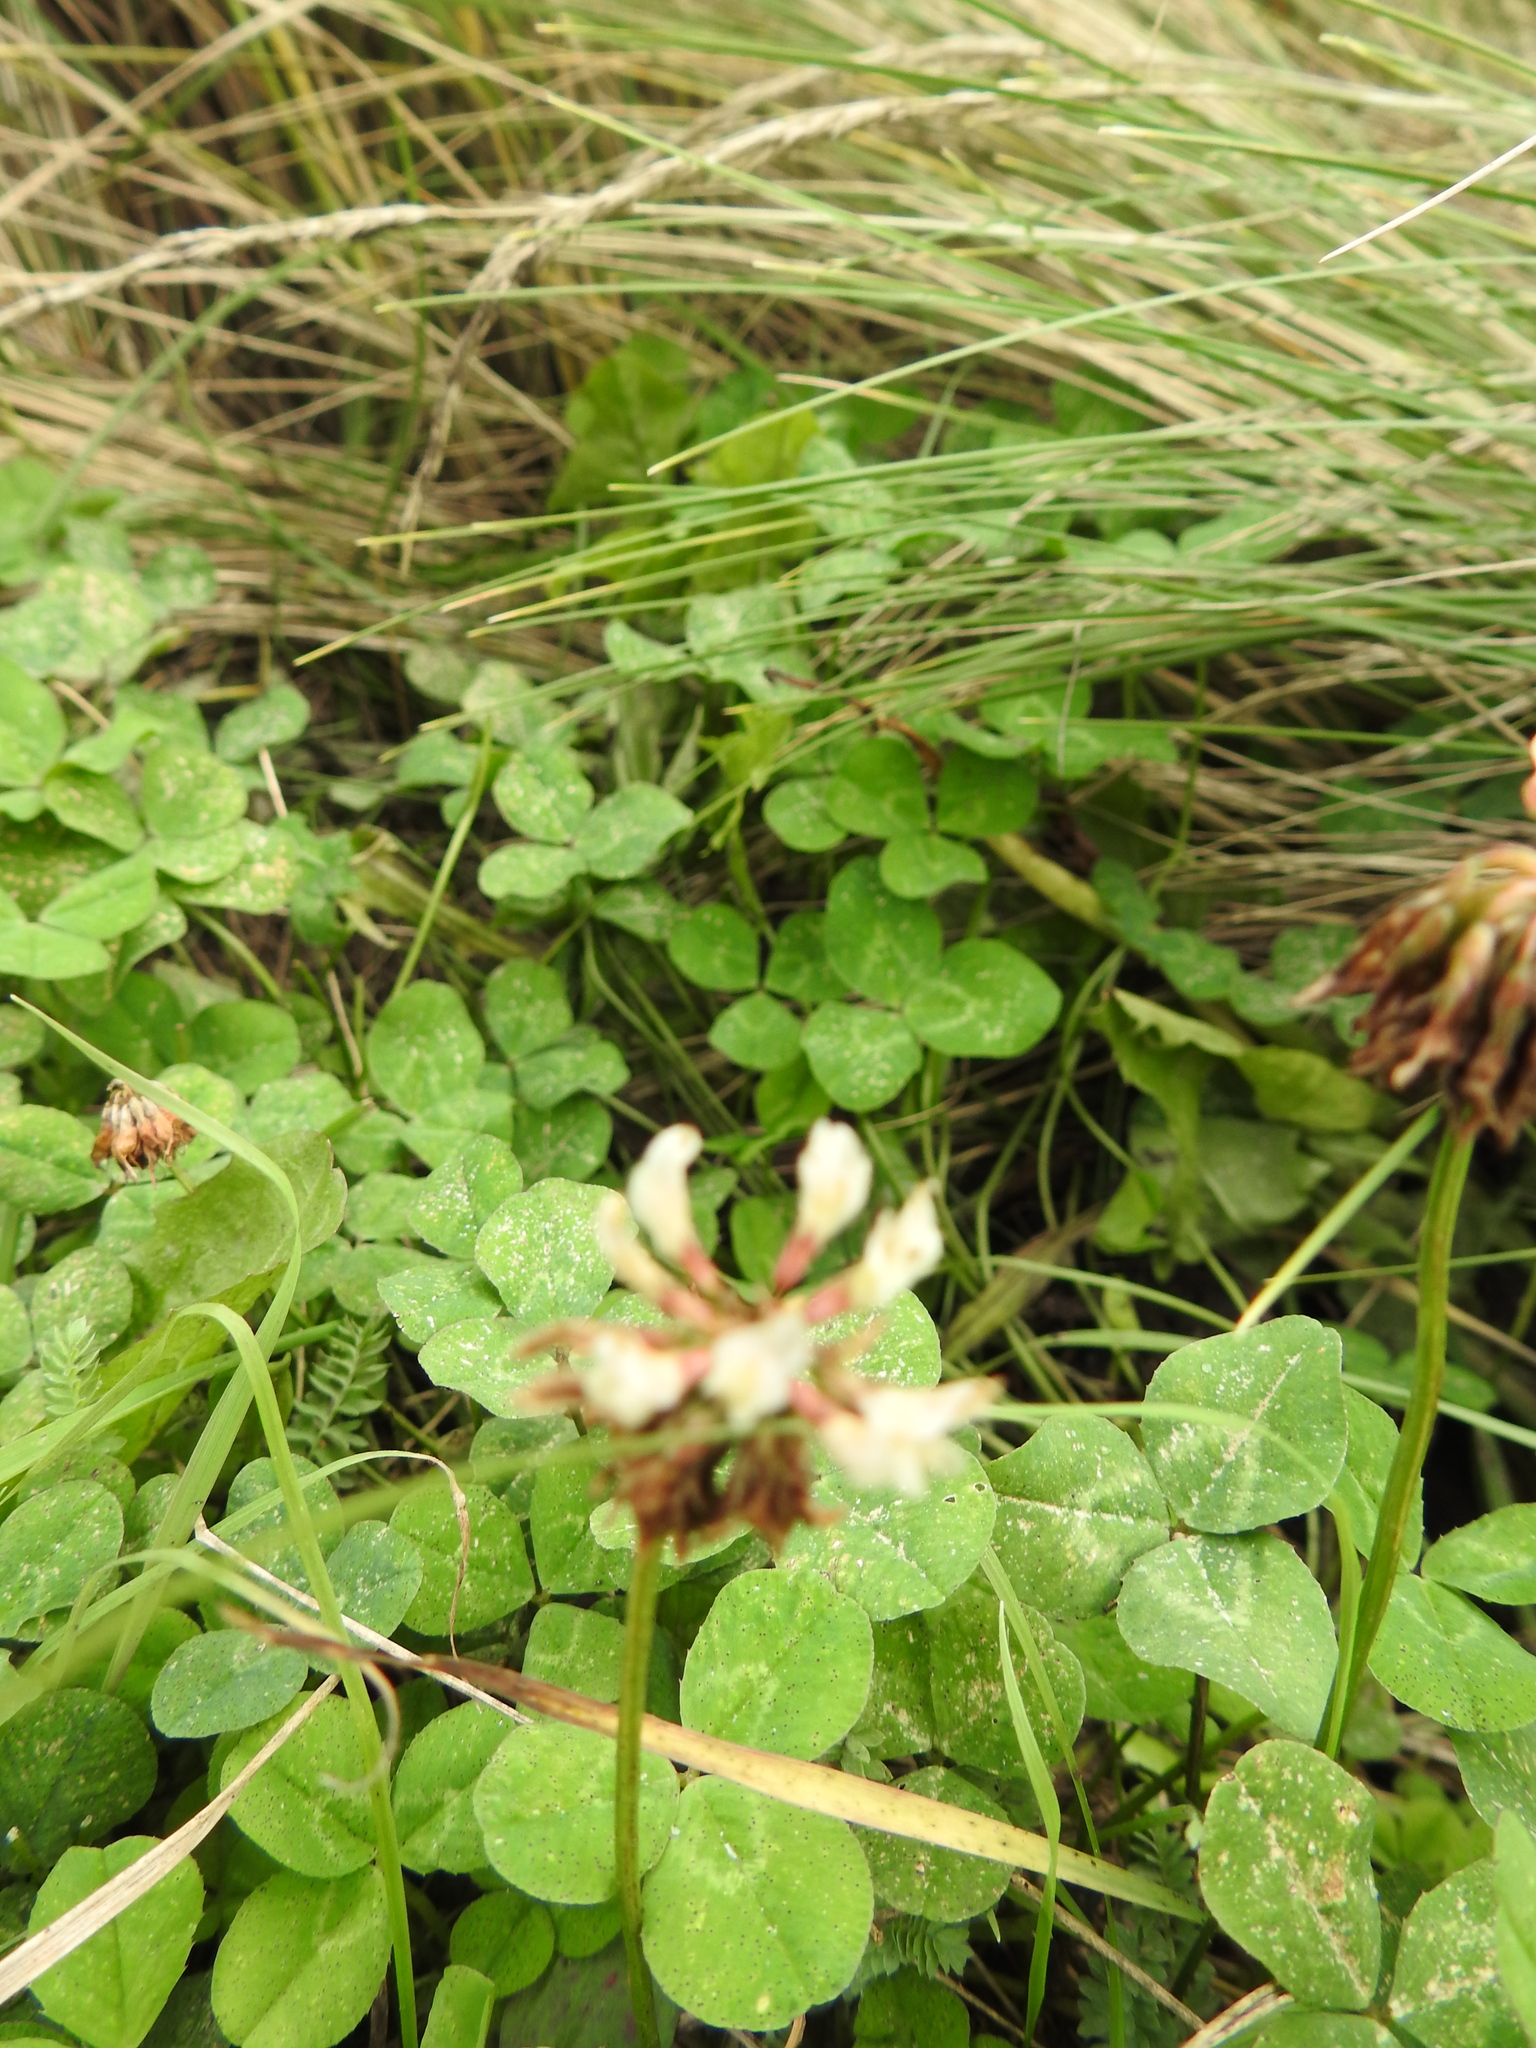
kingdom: Plantae
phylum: Tracheophyta
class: Magnoliopsida
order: Fabales
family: Fabaceae
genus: Trifolium
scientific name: Trifolium repens
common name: White clover
